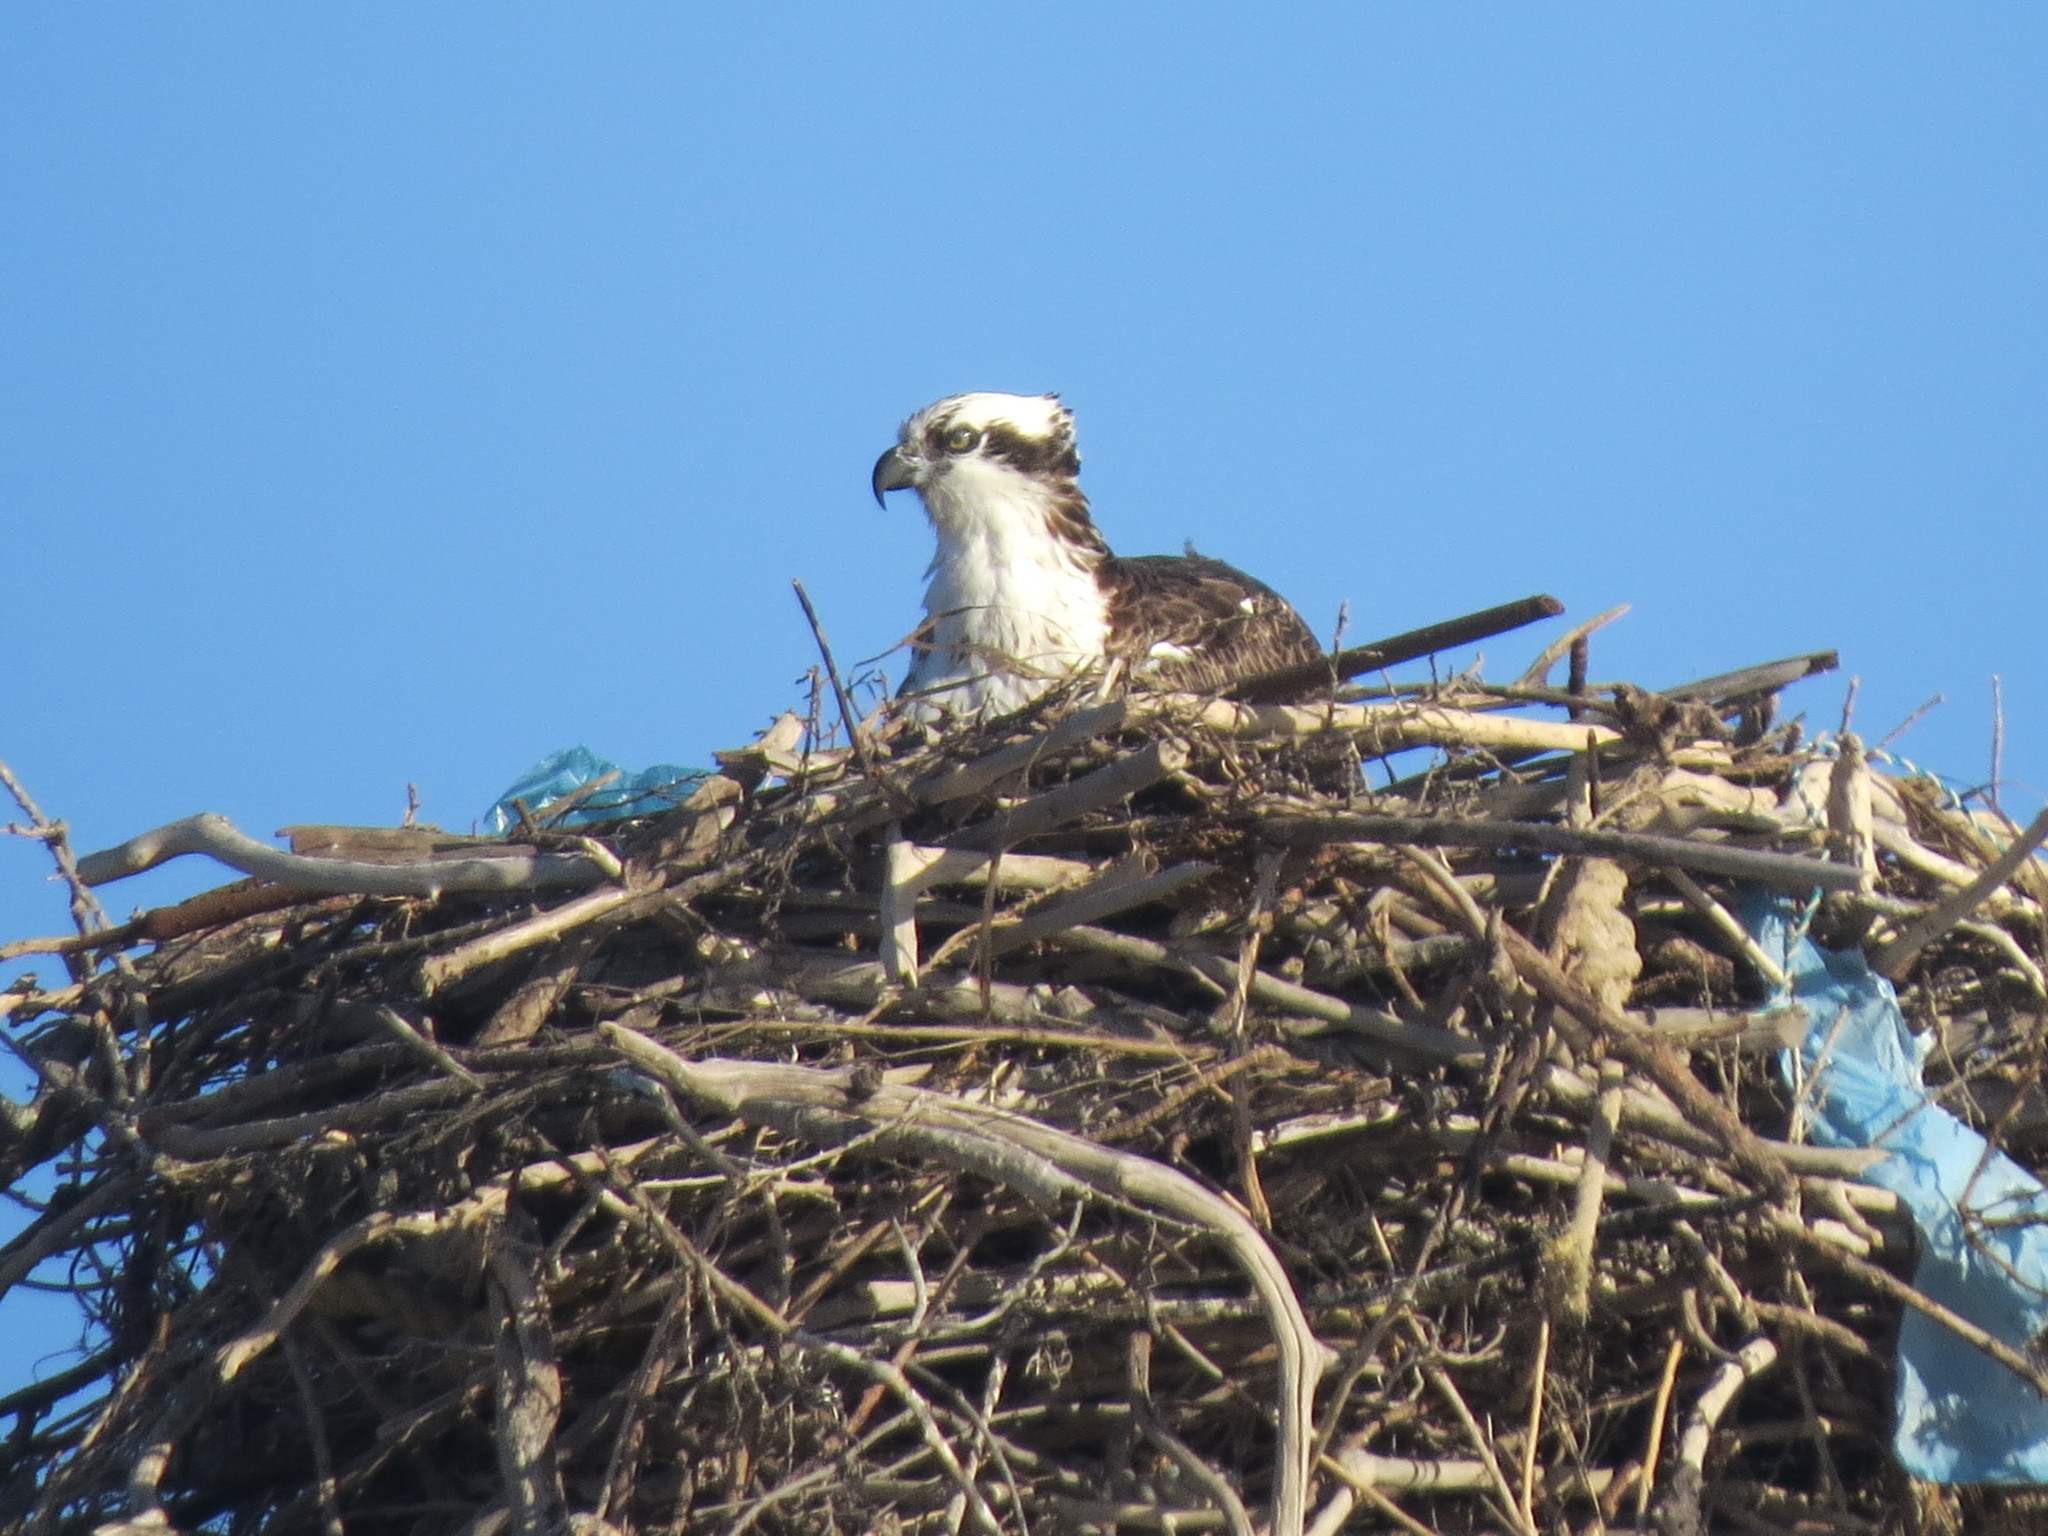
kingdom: Animalia
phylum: Chordata
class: Aves
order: Accipitriformes
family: Pandionidae
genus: Pandion
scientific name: Pandion haliaetus
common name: Osprey
